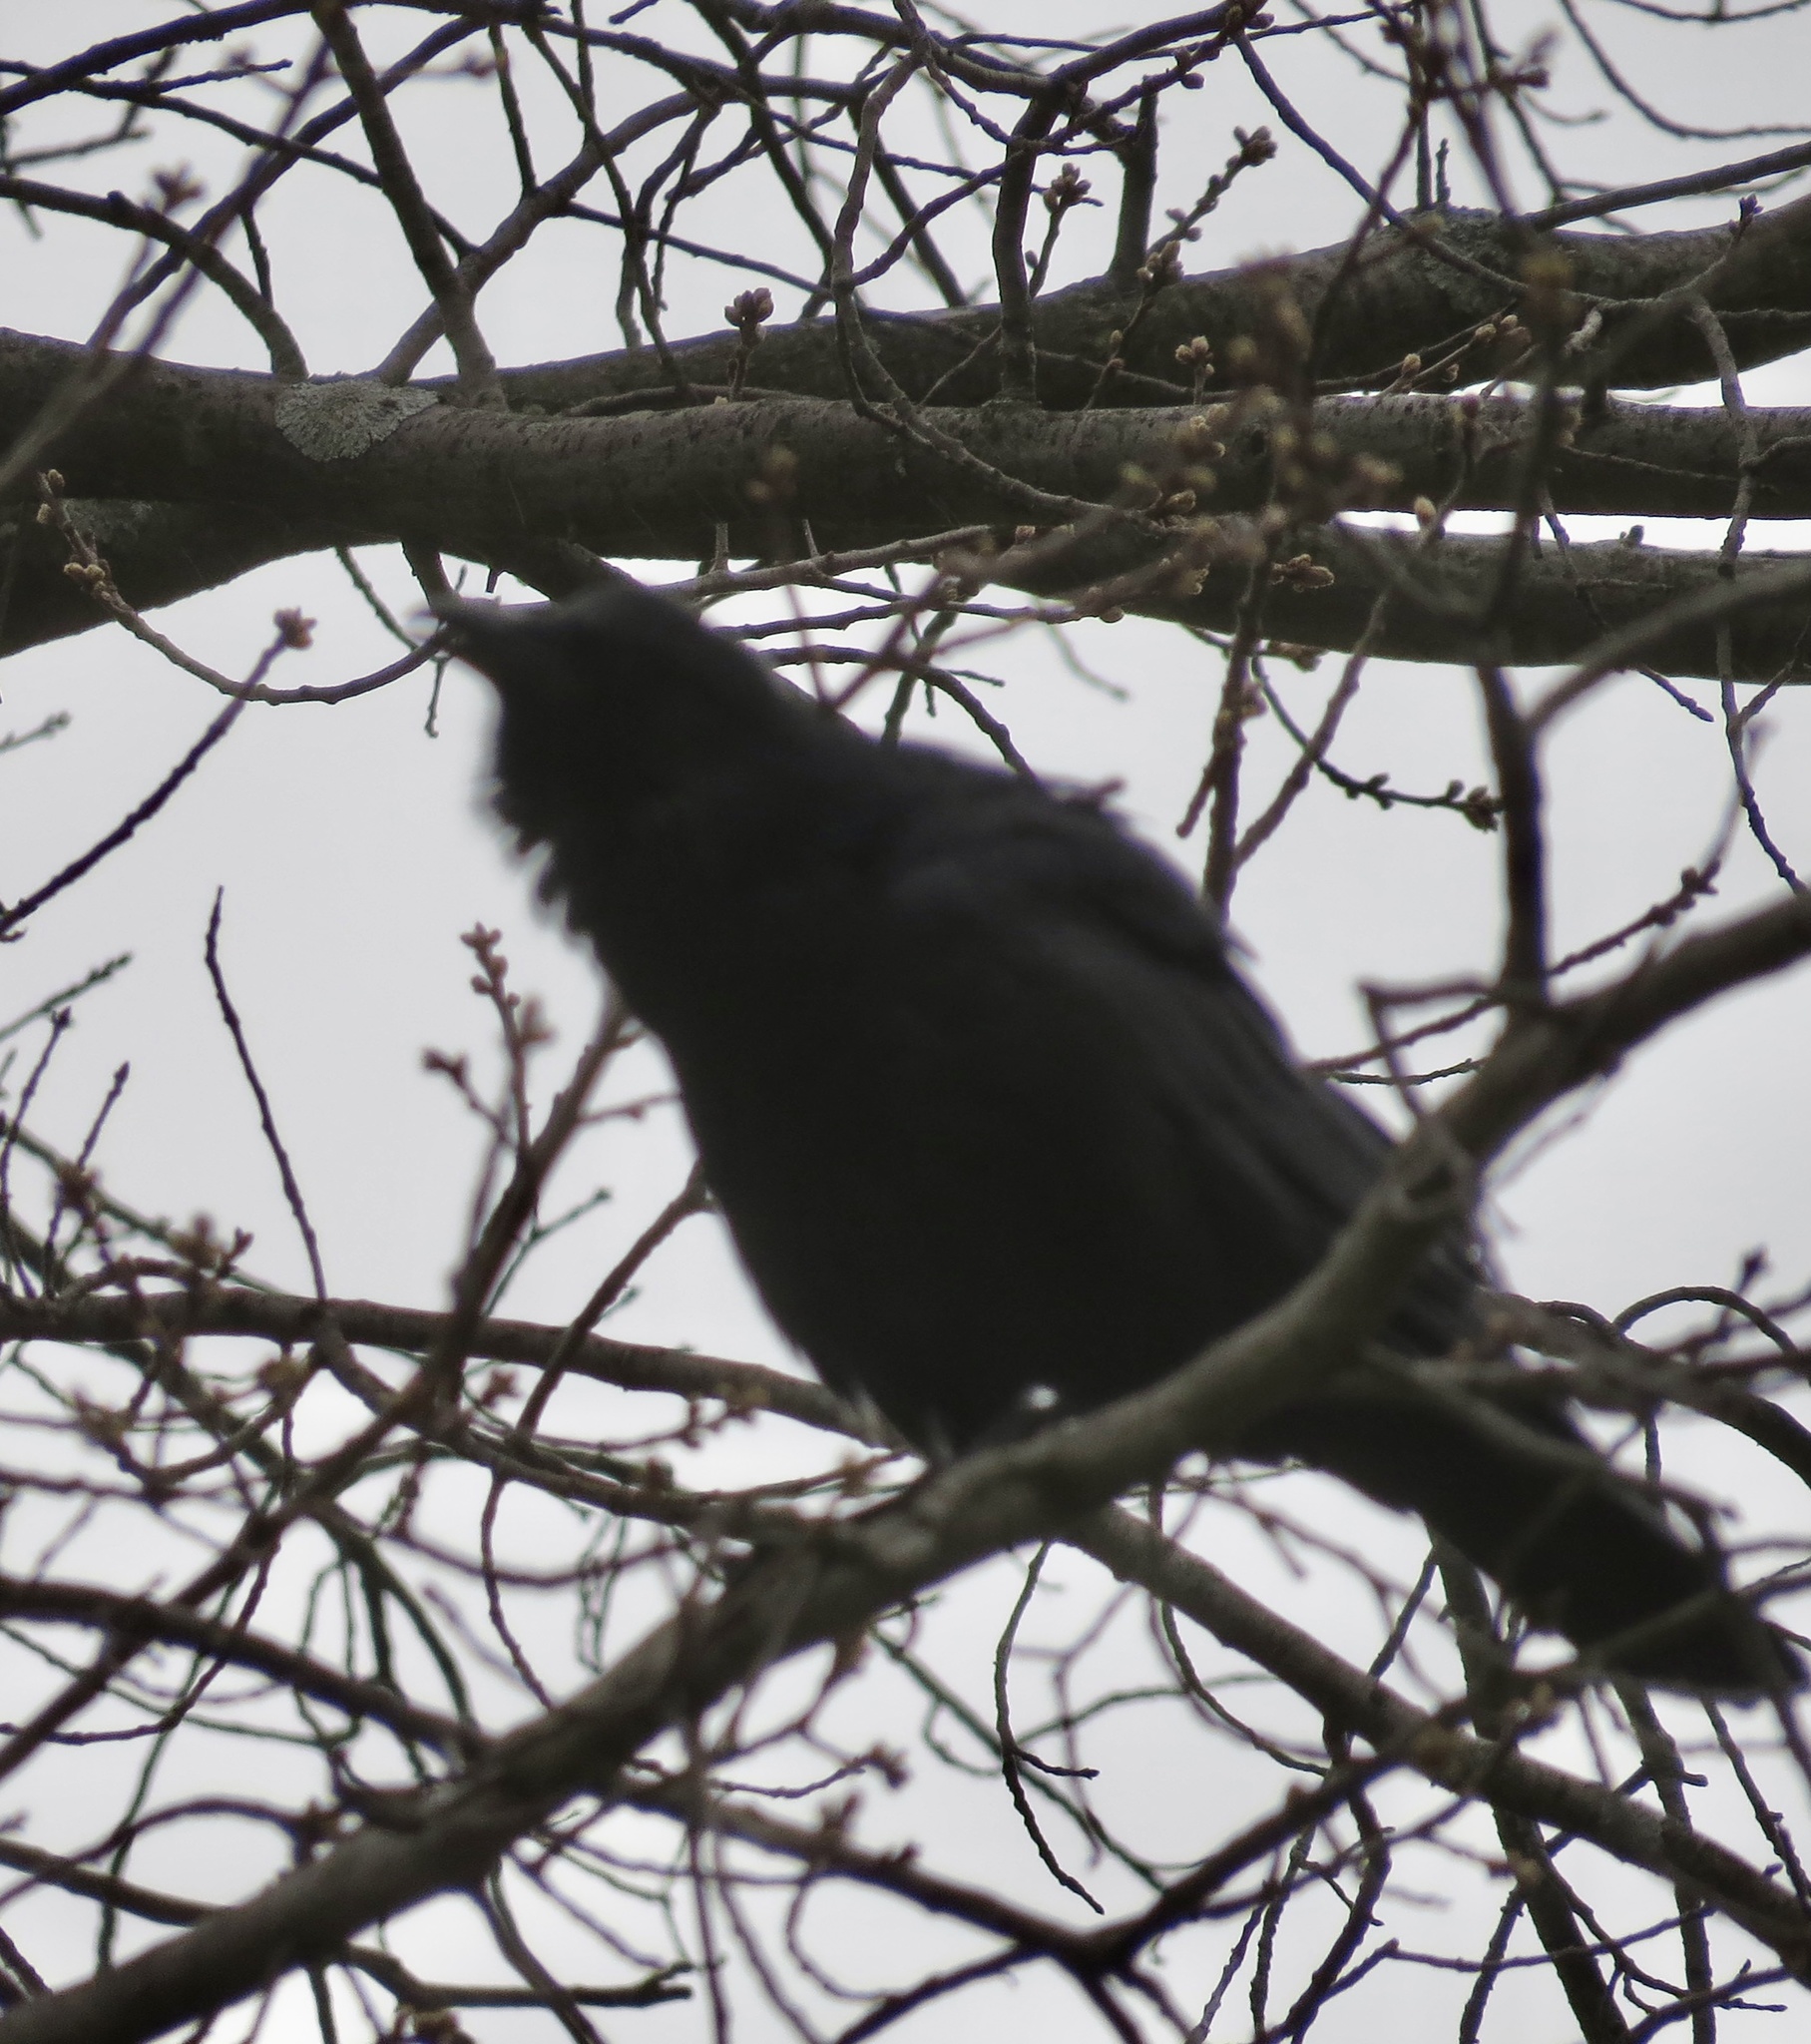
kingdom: Animalia
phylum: Chordata
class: Aves
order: Passeriformes
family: Corvidae
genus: Corvus
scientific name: Corvus
